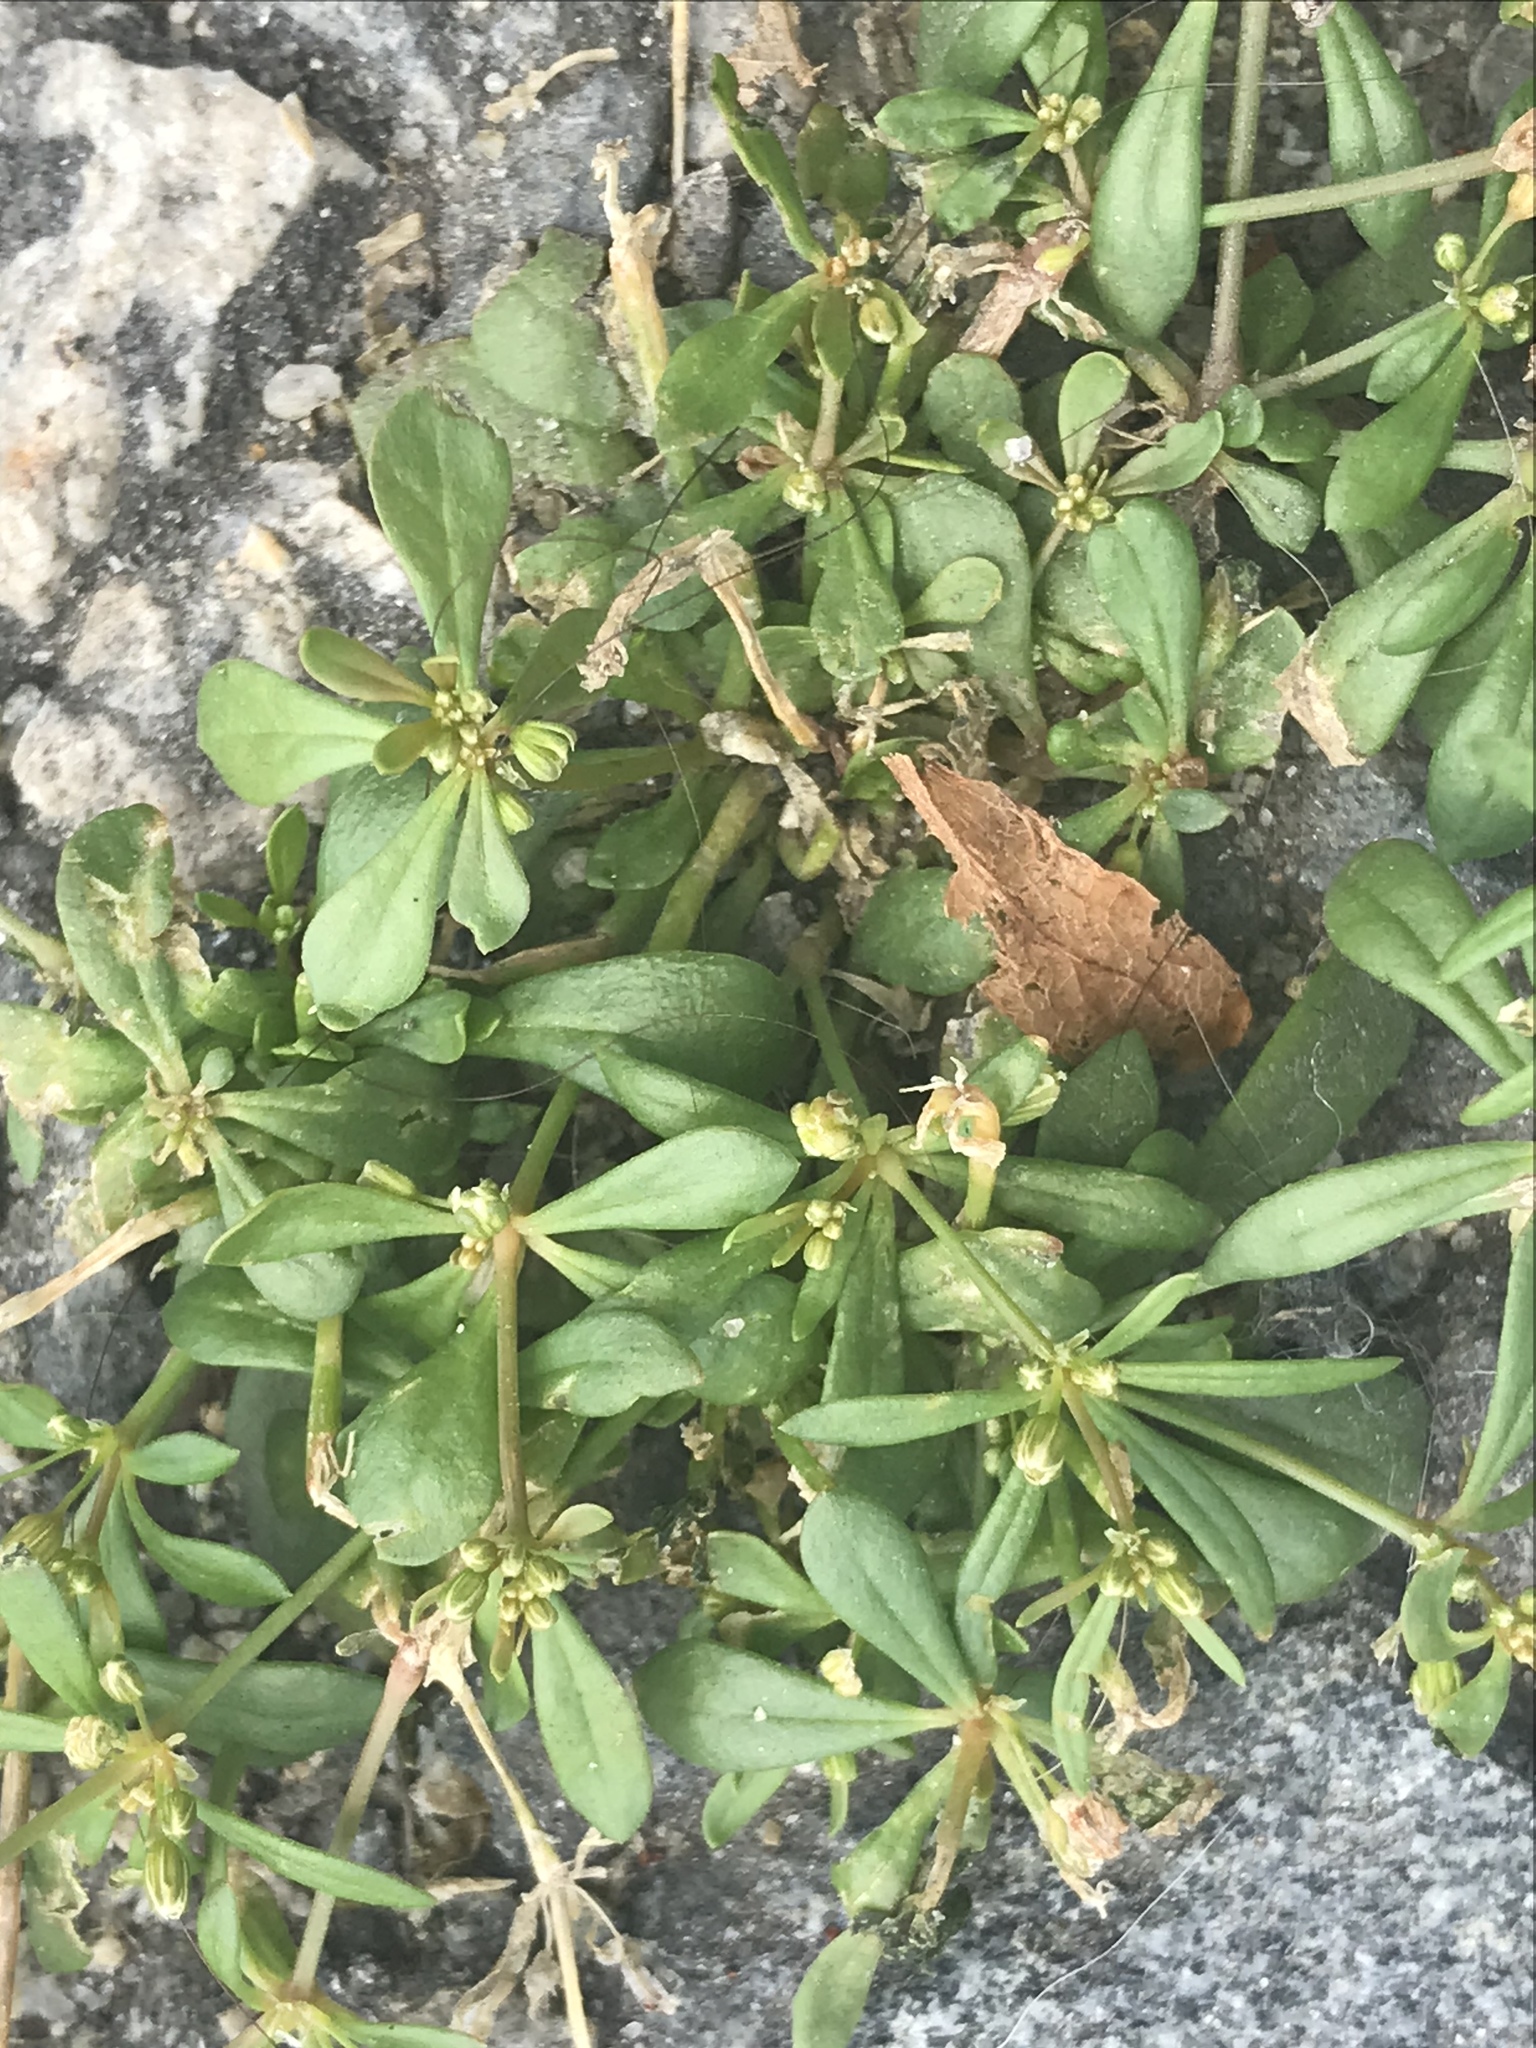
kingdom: Plantae
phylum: Tracheophyta
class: Magnoliopsida
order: Caryophyllales
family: Molluginaceae
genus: Mollugo
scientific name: Mollugo verticillata
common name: Green carpetweed
